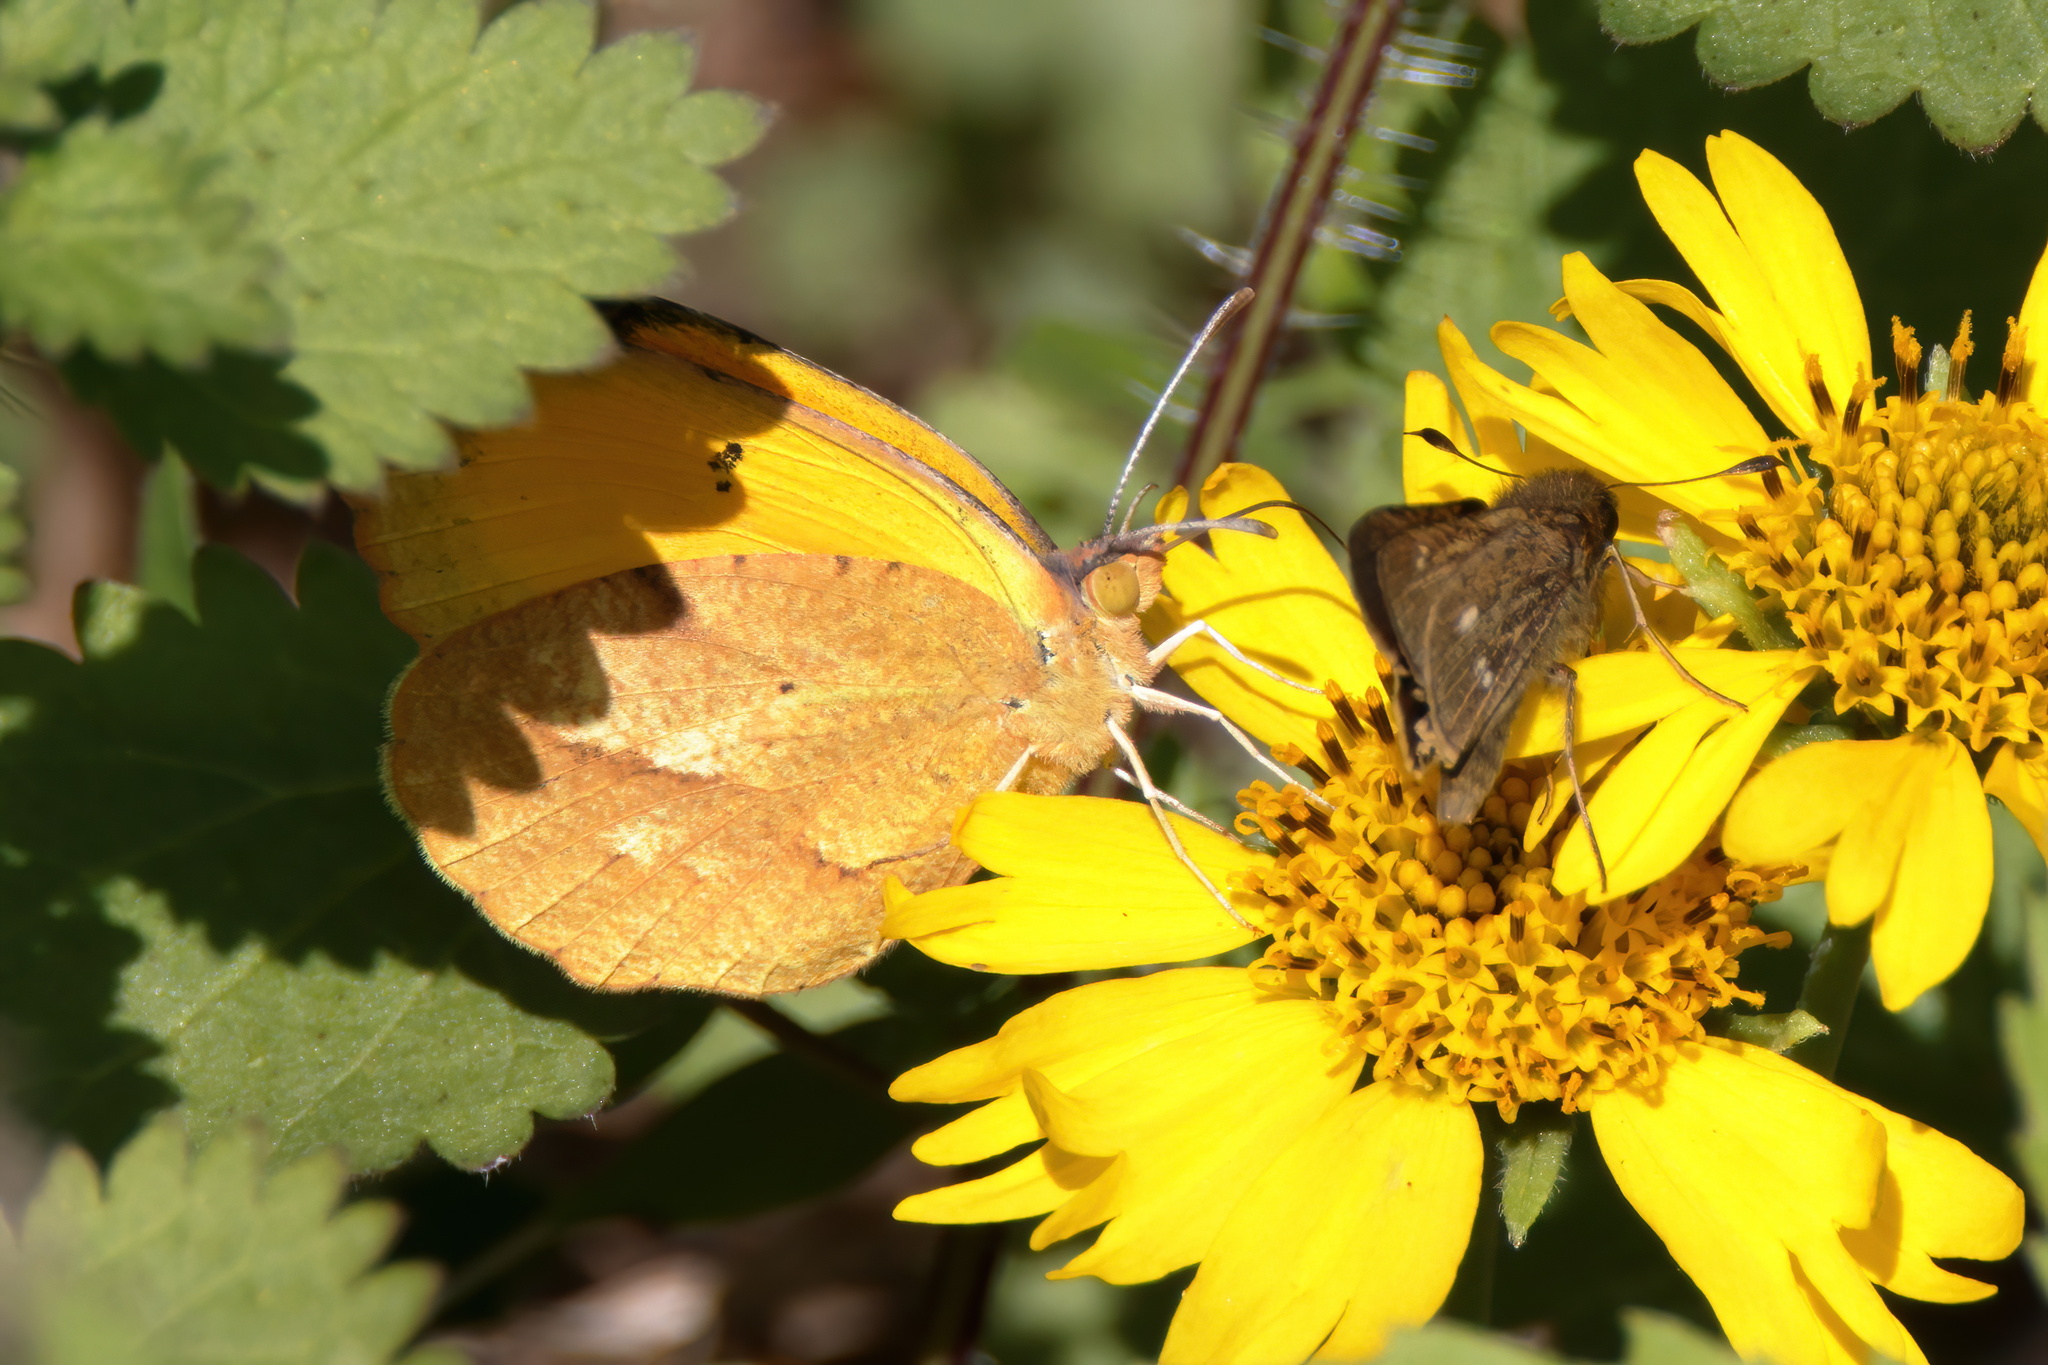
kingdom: Animalia
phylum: Arthropoda
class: Insecta
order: Lepidoptera
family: Pieridae
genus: Abaeis
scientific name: Abaeis nicippe
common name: Sleepy orange
